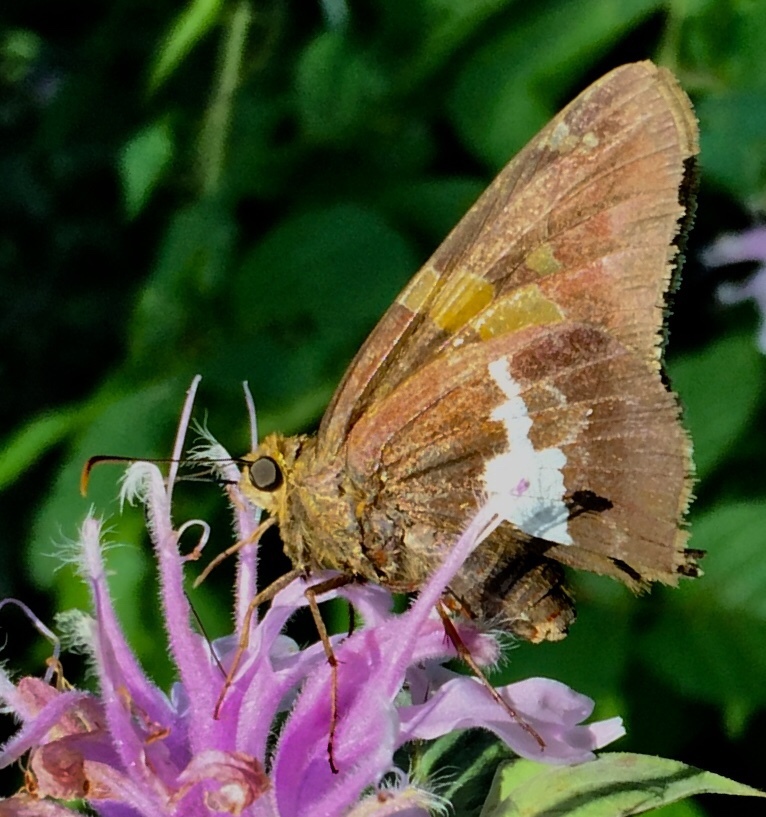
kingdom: Animalia
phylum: Arthropoda
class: Insecta
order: Lepidoptera
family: Hesperiidae
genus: Epargyreus
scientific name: Epargyreus clarus
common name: Silver-spotted skipper
